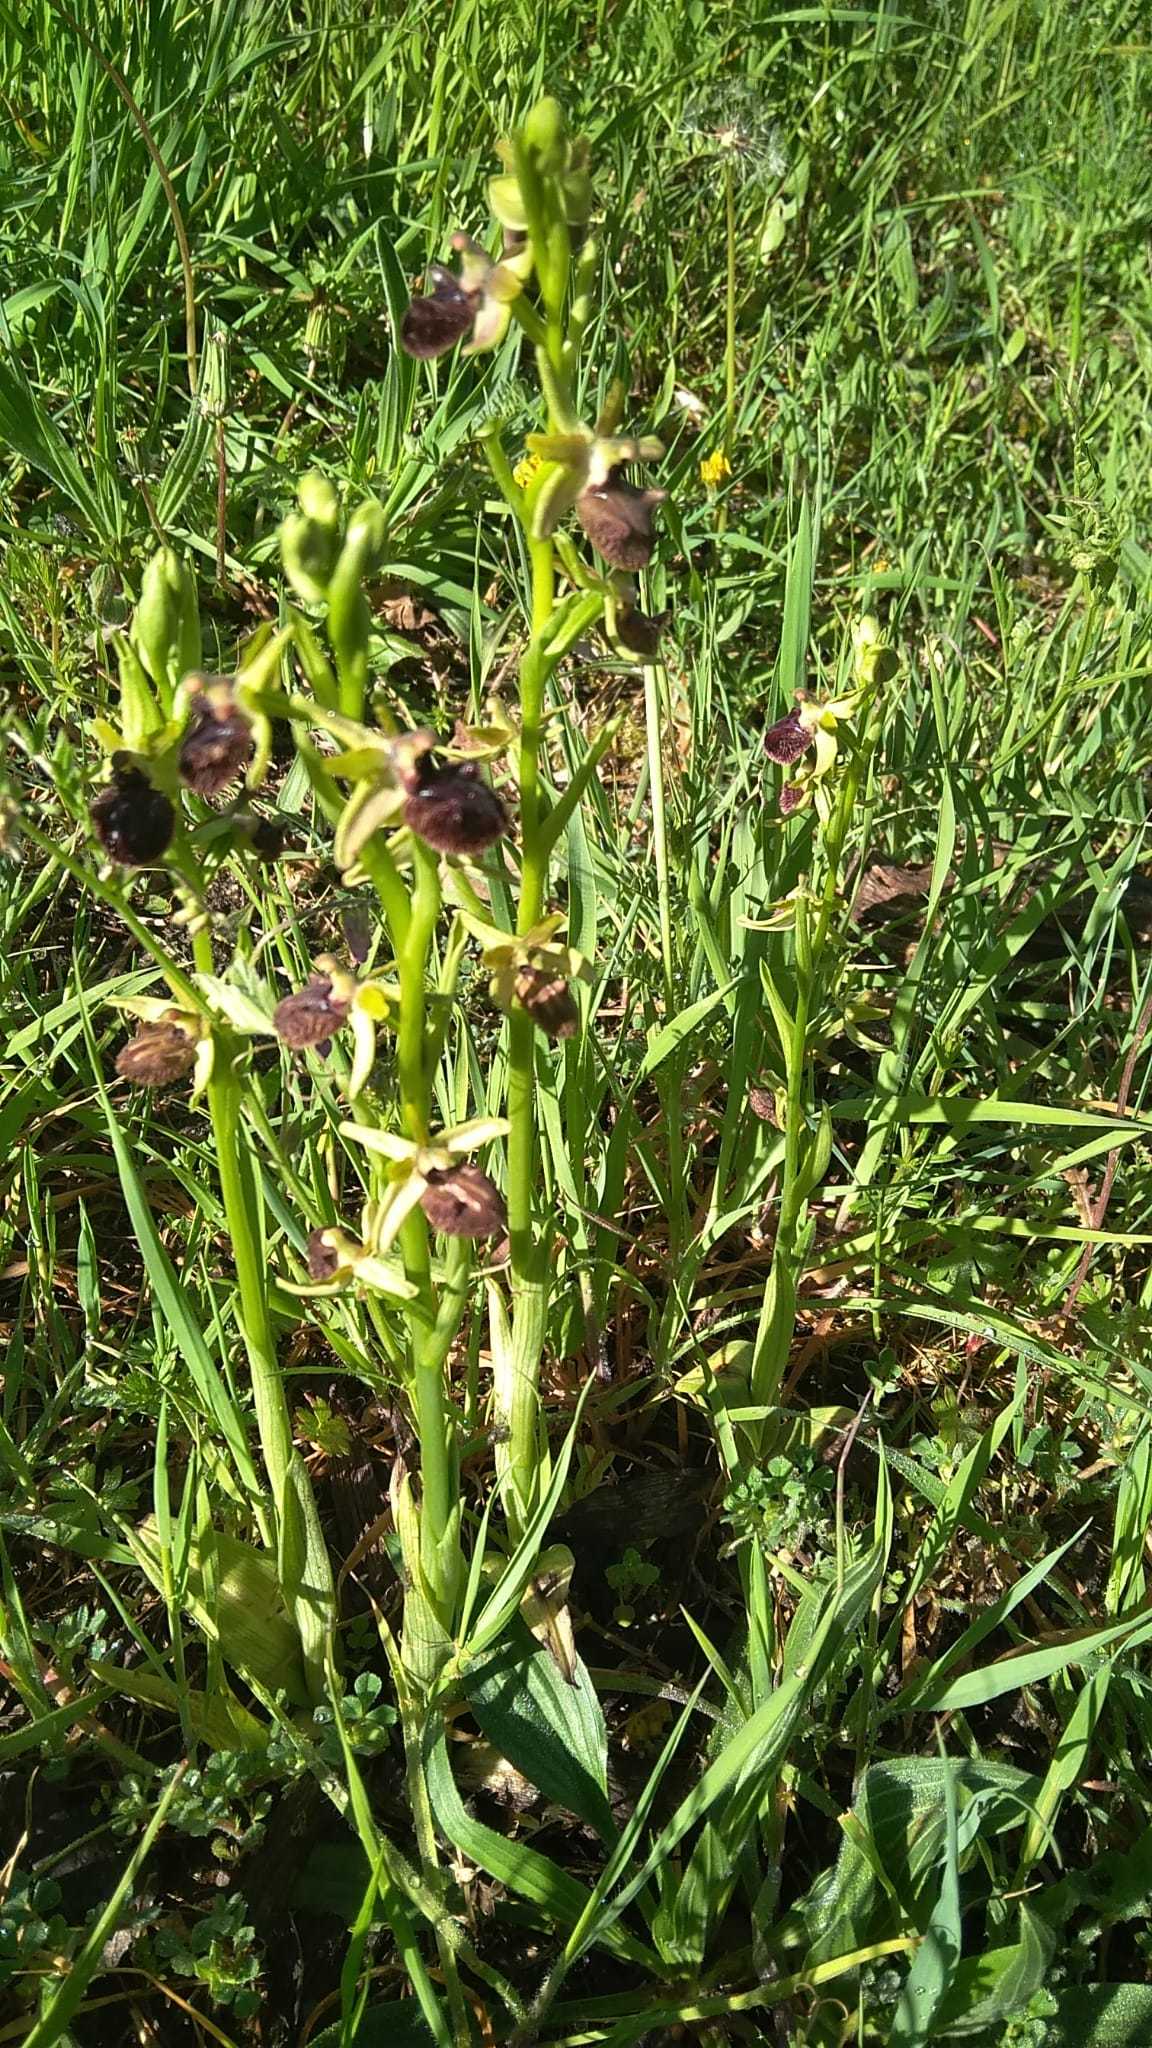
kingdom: Plantae
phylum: Tracheophyta
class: Liliopsida
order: Asparagales
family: Orchidaceae
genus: Ophrys
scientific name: Ophrys sphegodes
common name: Early spider-orchid
